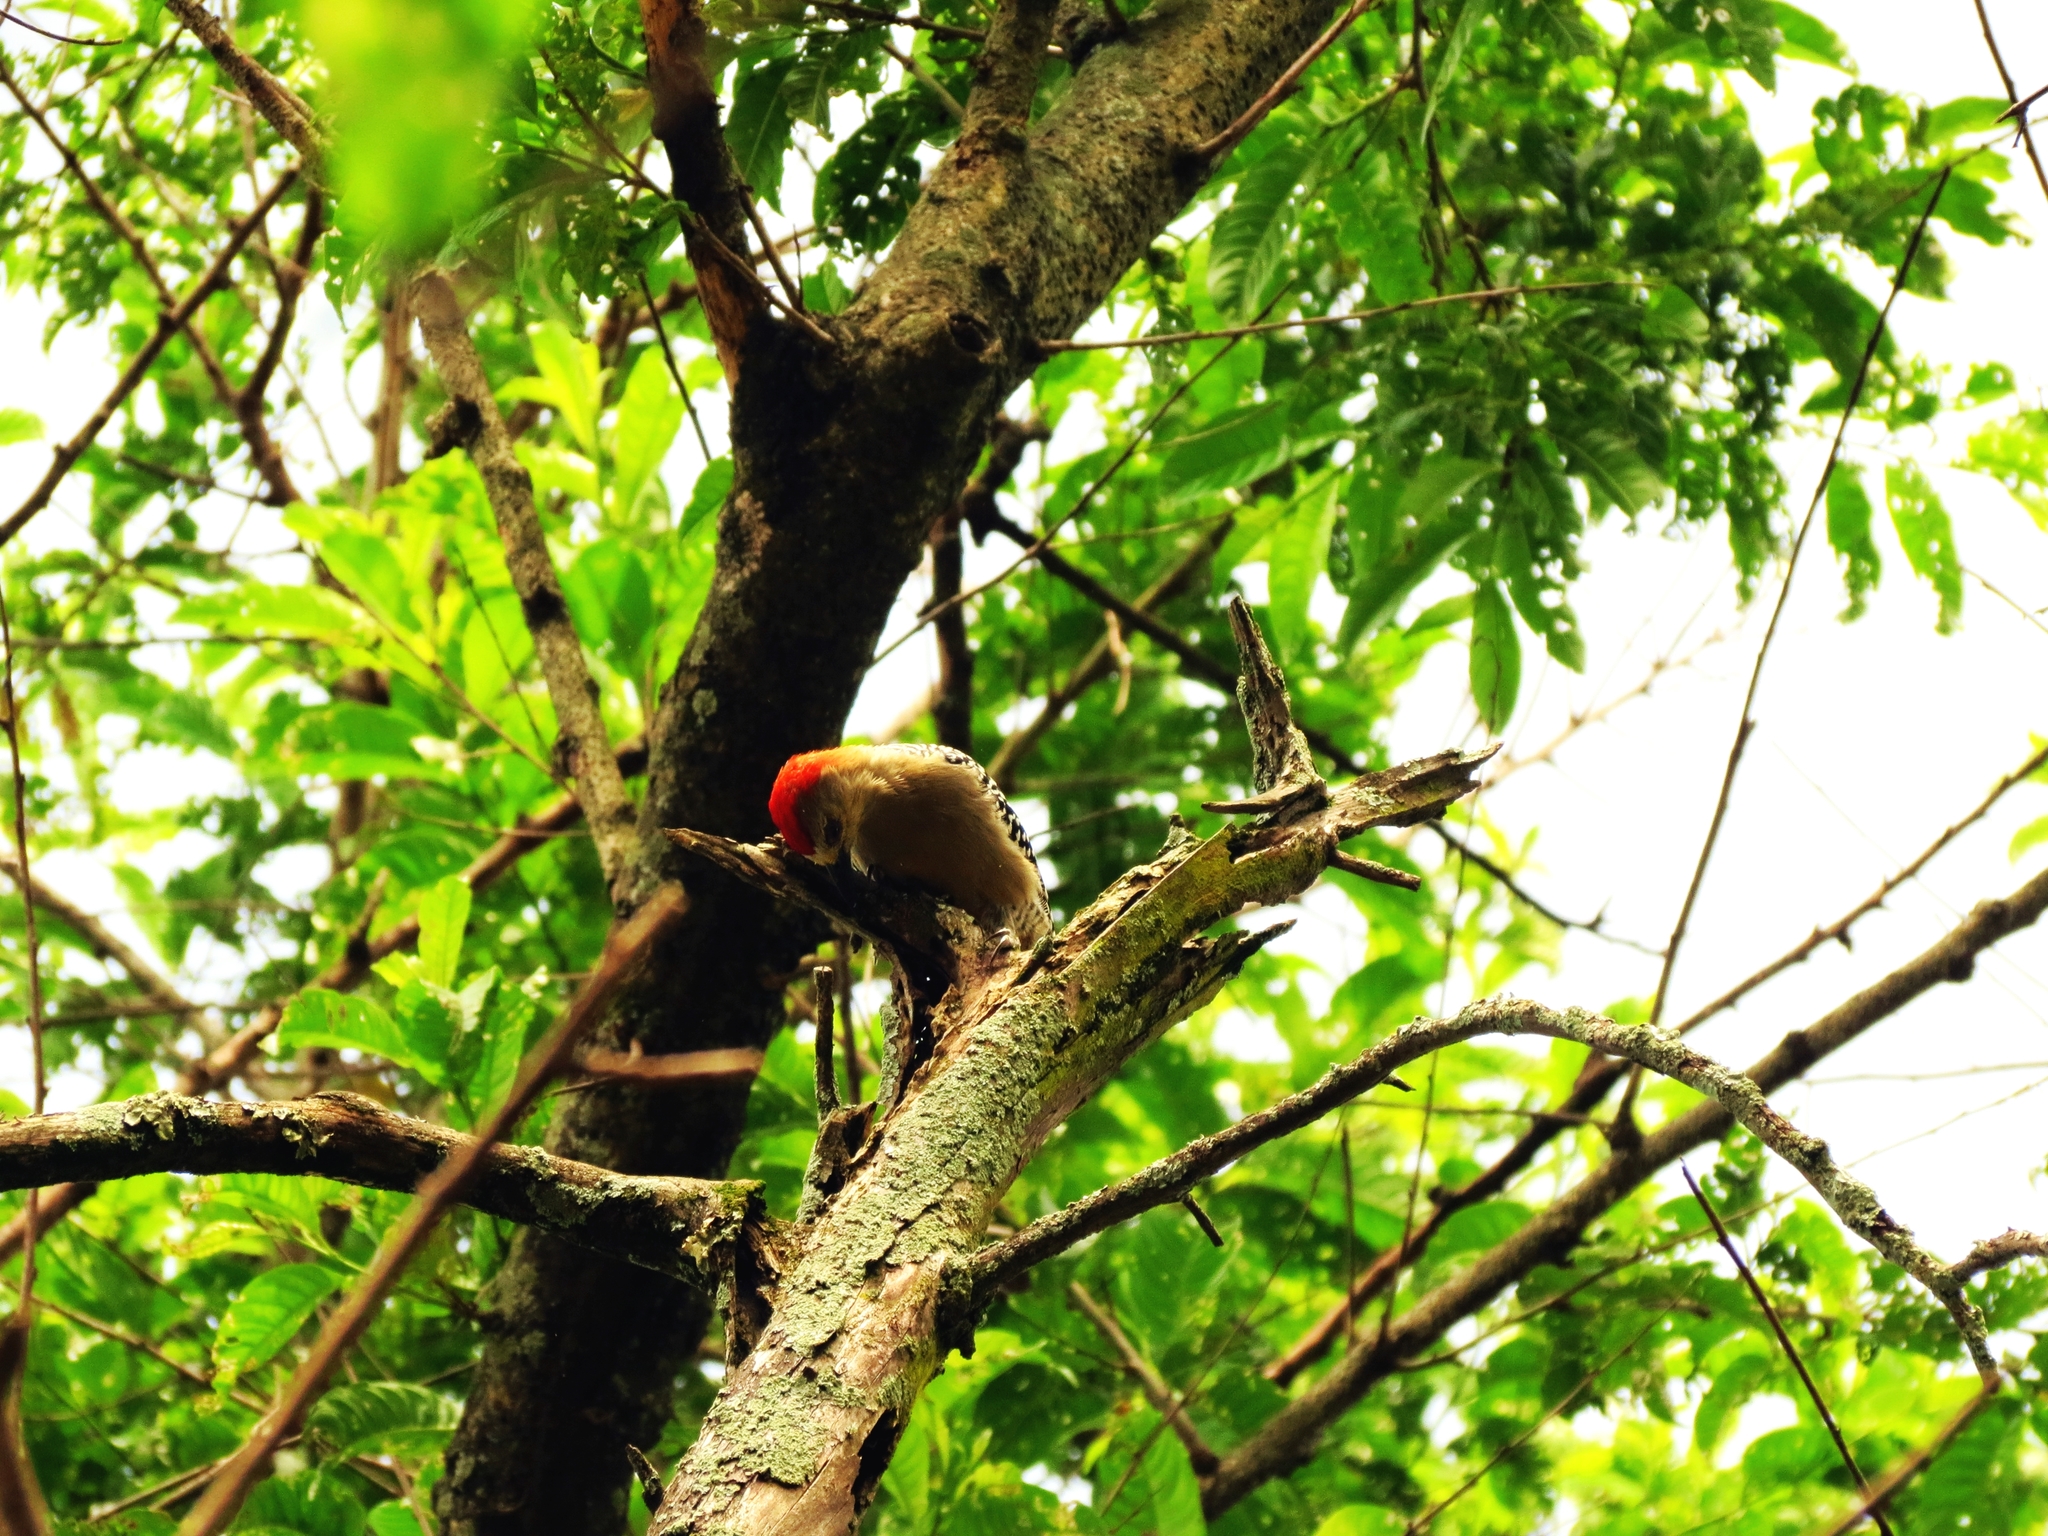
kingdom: Animalia
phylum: Chordata
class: Aves
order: Piciformes
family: Picidae
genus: Melanerpes
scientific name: Melanerpes rubricapillus
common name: Red-crowned woodpecker
